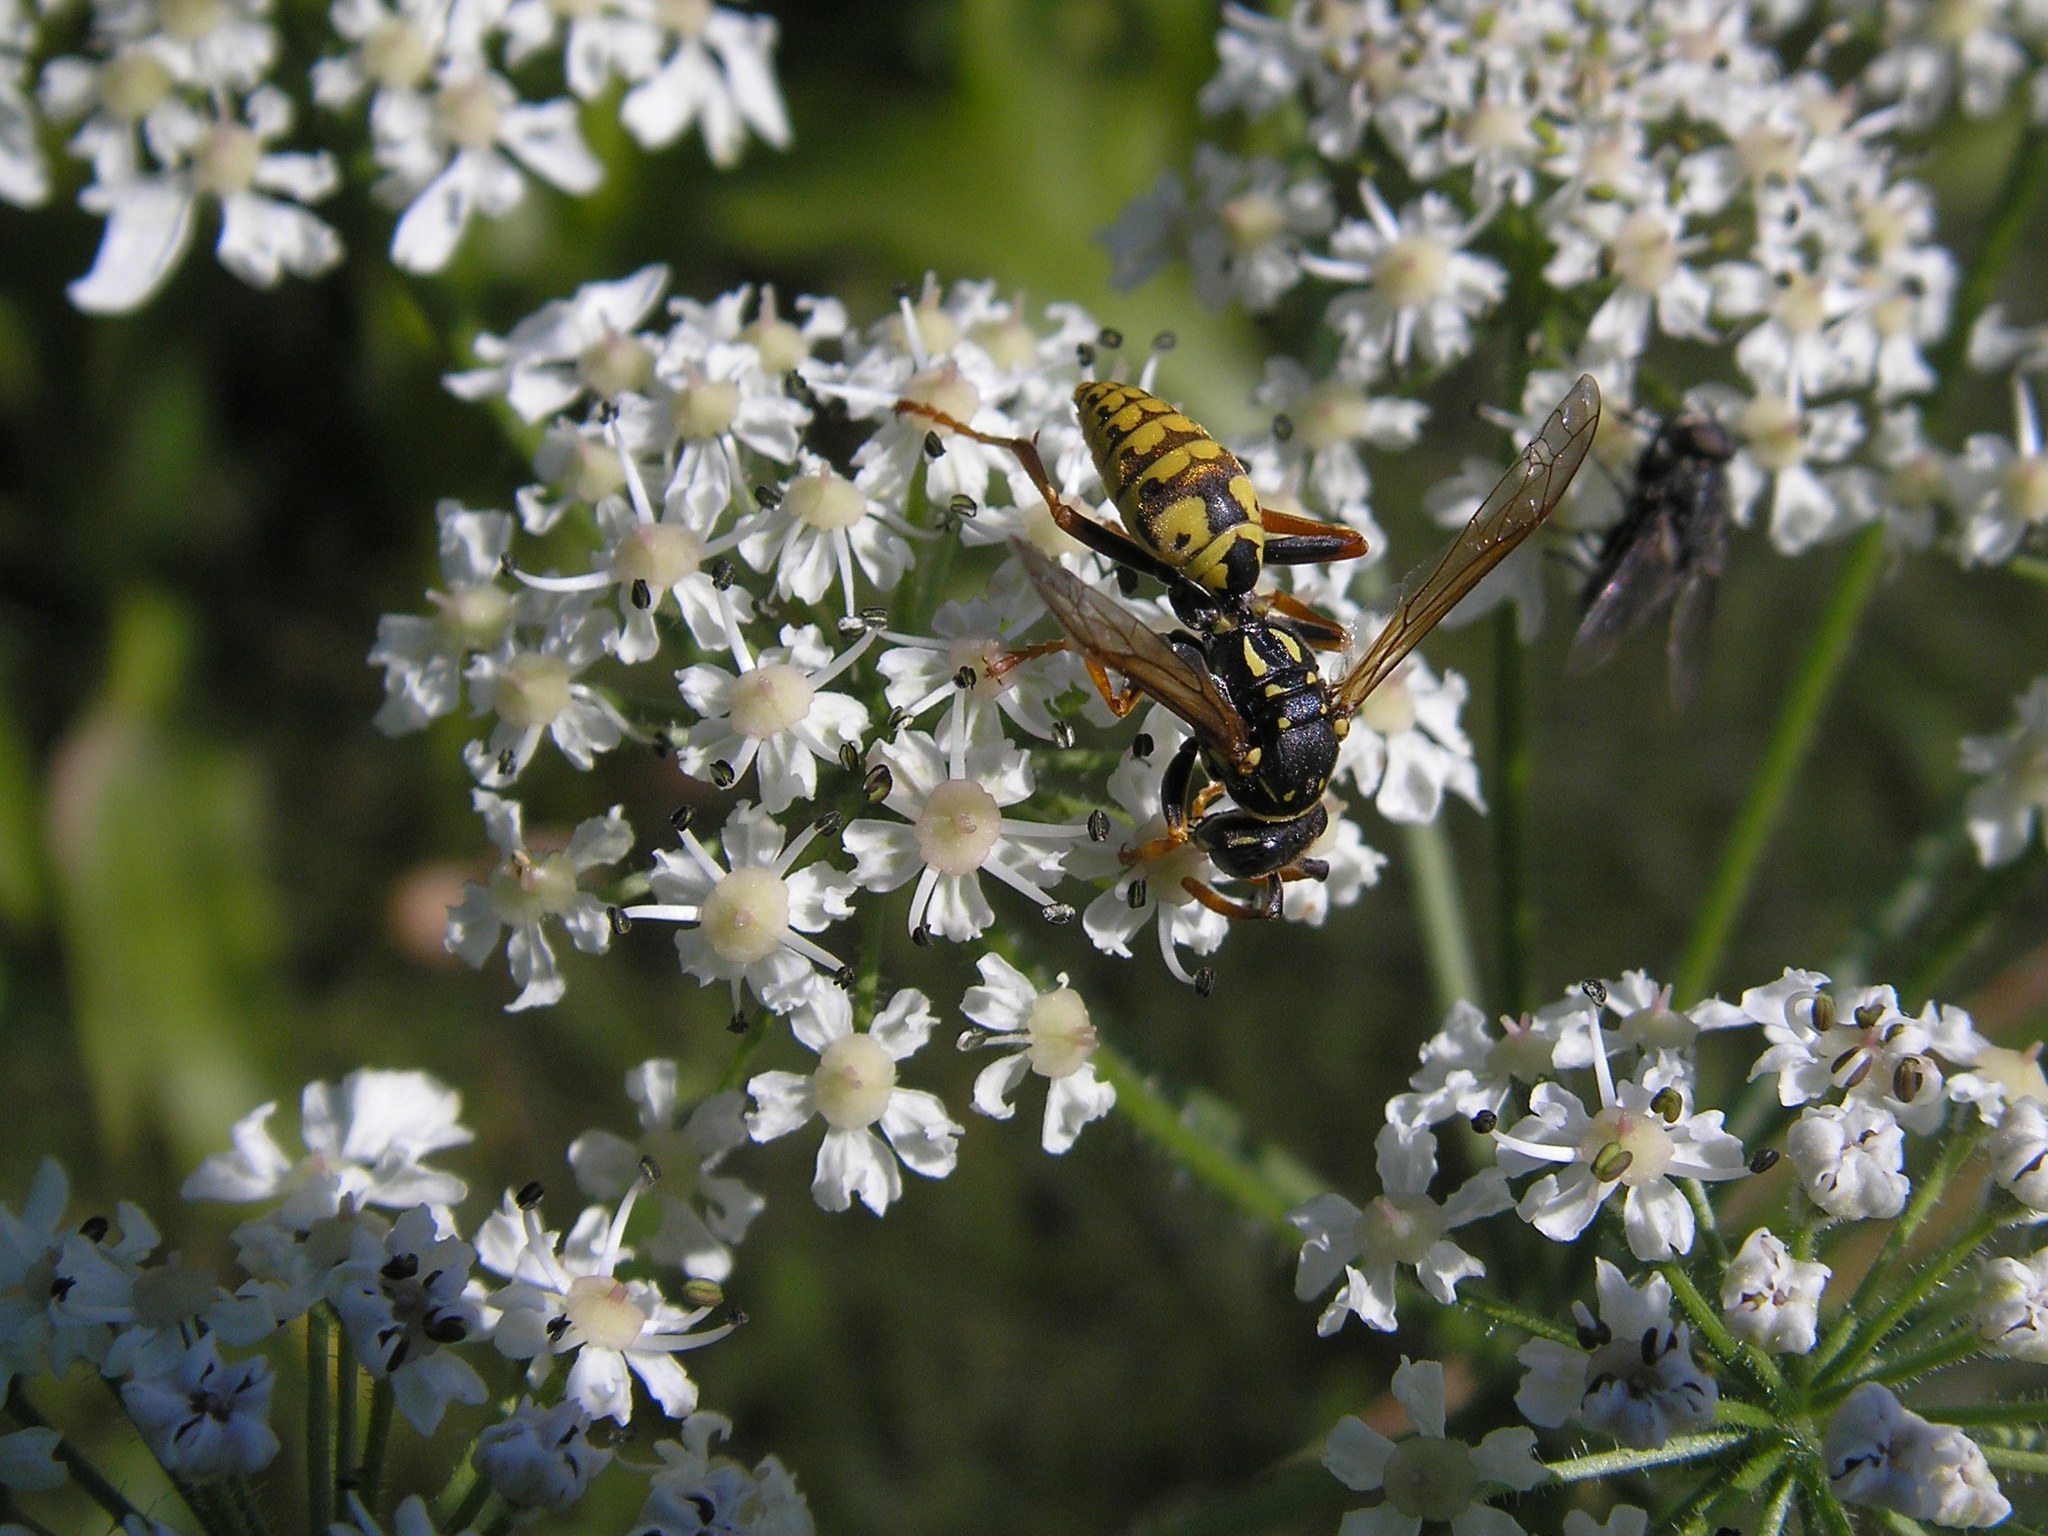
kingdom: Animalia
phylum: Arthropoda
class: Insecta
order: Hymenoptera
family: Eumenidae
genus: Polistes
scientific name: Polistes dominula
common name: Paper wasp
